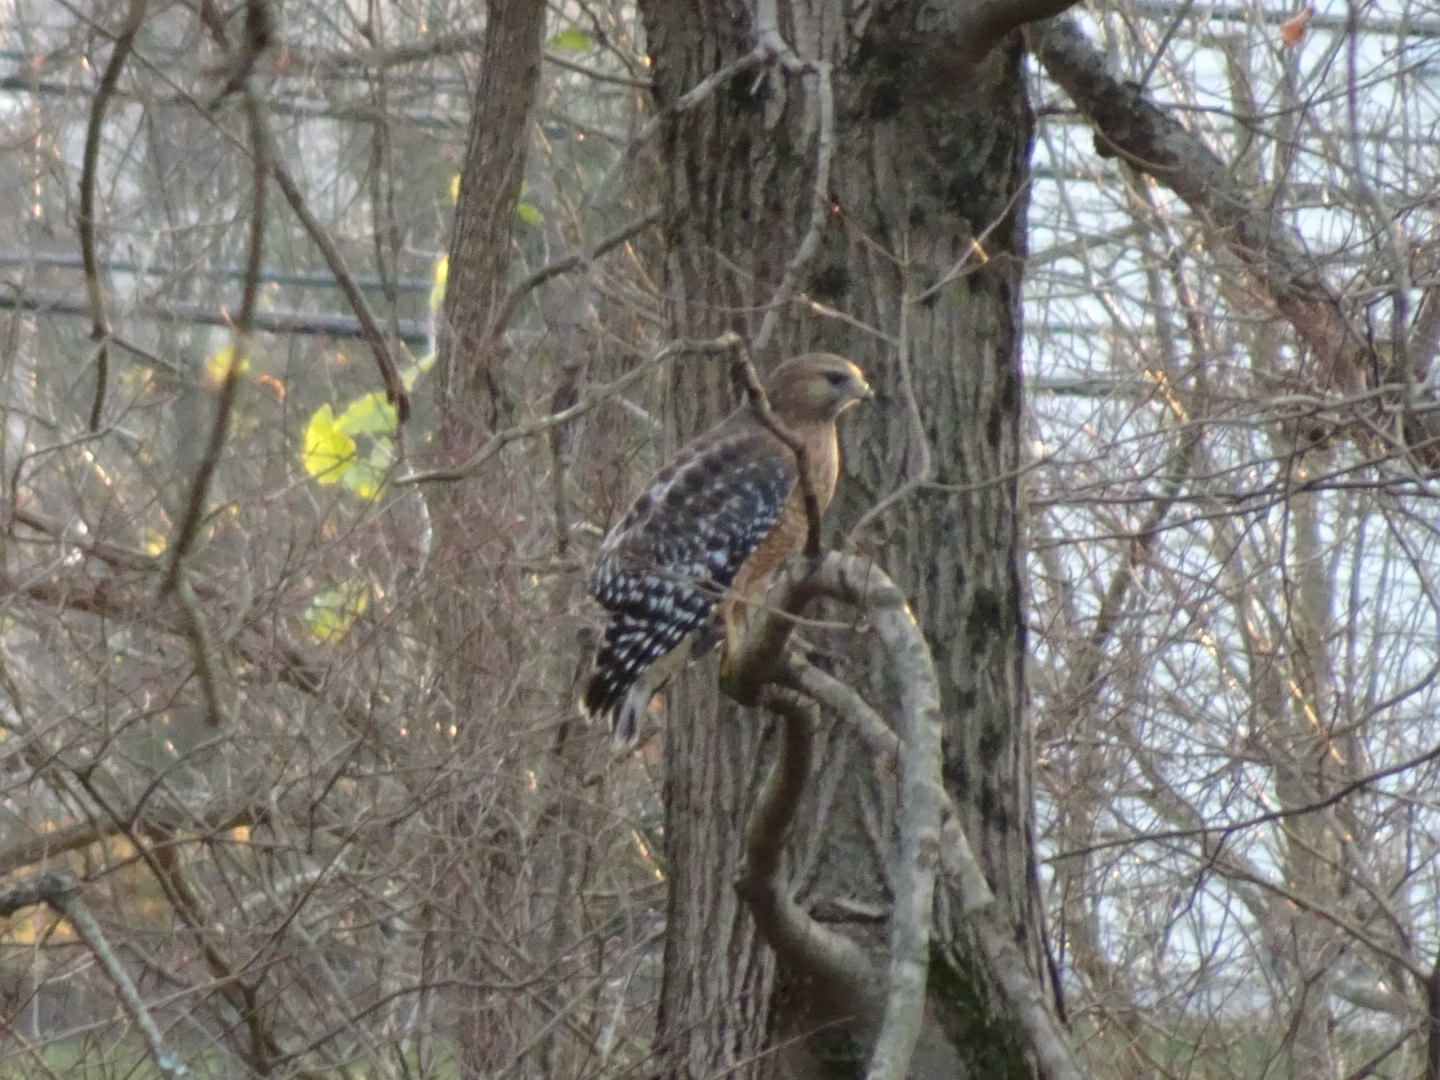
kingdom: Animalia
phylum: Chordata
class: Aves
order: Accipitriformes
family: Accipitridae
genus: Buteo
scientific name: Buteo lineatus
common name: Red-shouldered hawk
